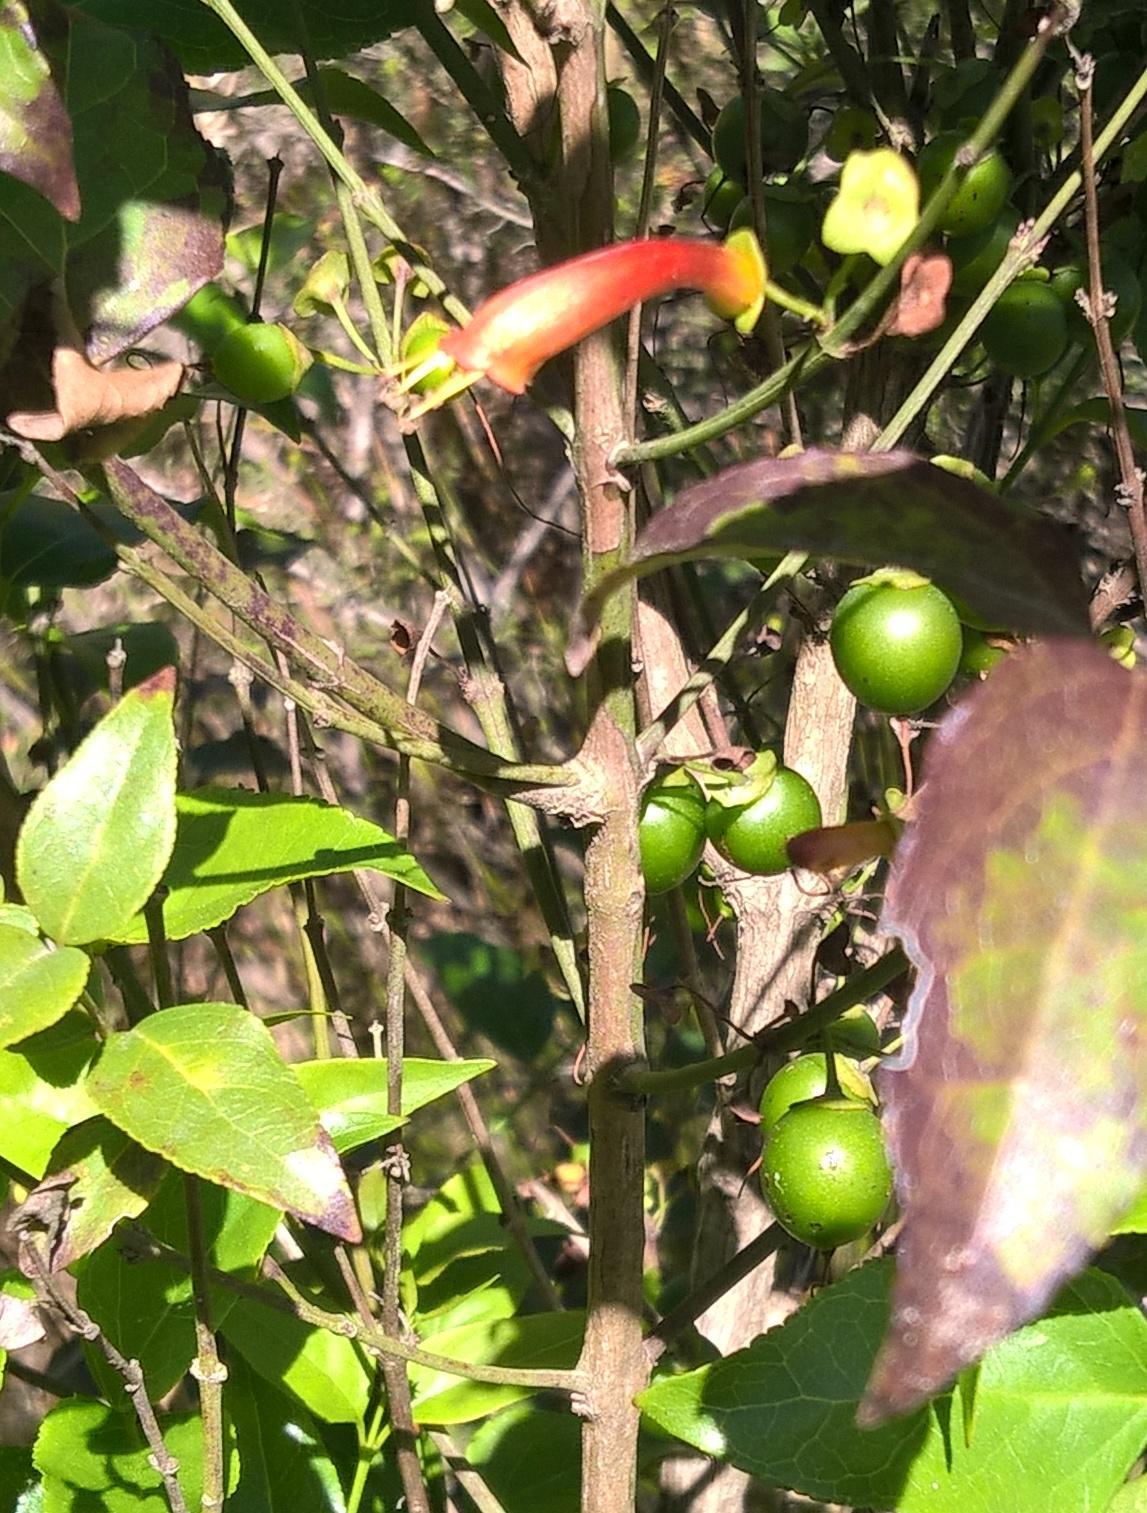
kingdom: Plantae
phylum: Tracheophyta
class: Magnoliopsida
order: Lamiales
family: Stilbaceae
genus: Halleria
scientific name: Halleria lucida
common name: Tree fuschia
